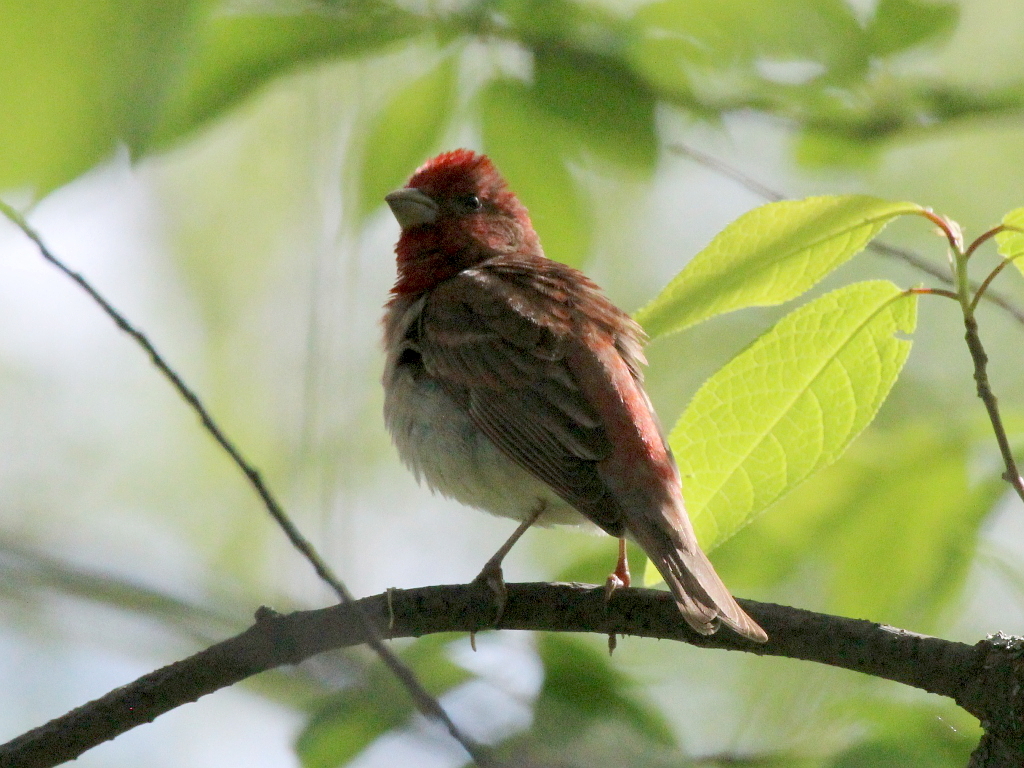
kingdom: Animalia
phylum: Chordata
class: Aves
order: Passeriformes
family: Fringillidae
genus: Carpodacus
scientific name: Carpodacus erythrinus
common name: Common rosefinch
